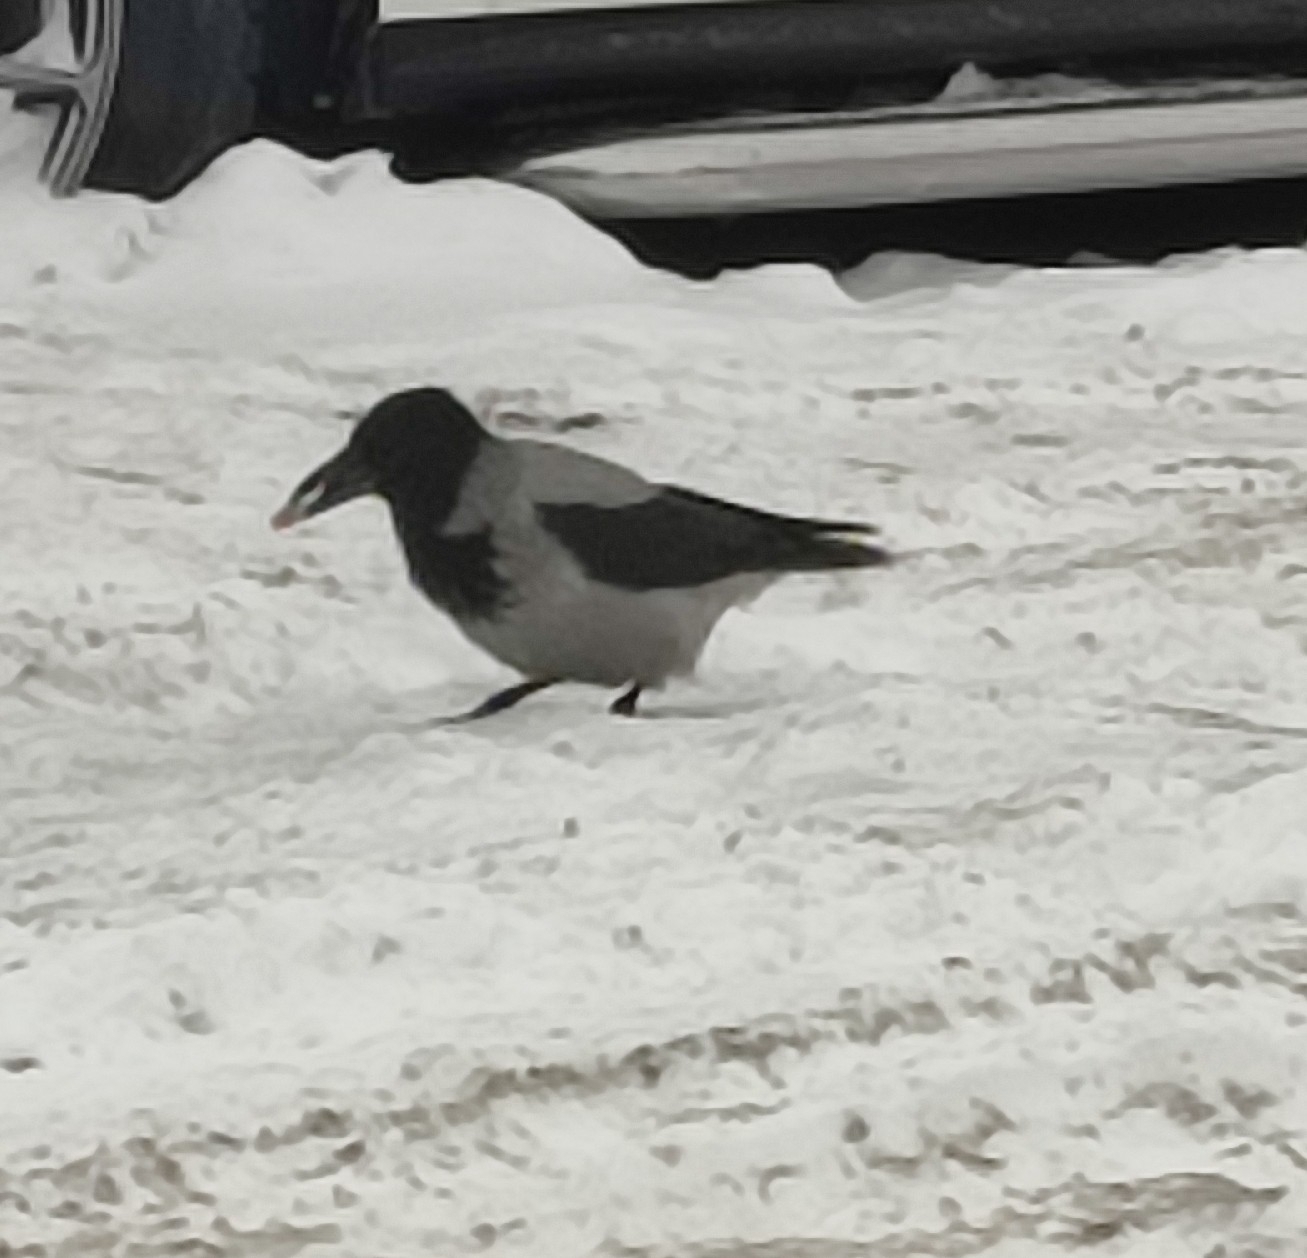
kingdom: Animalia
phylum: Chordata
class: Aves
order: Passeriformes
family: Corvidae
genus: Corvus
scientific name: Corvus cornix
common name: Hooded crow
